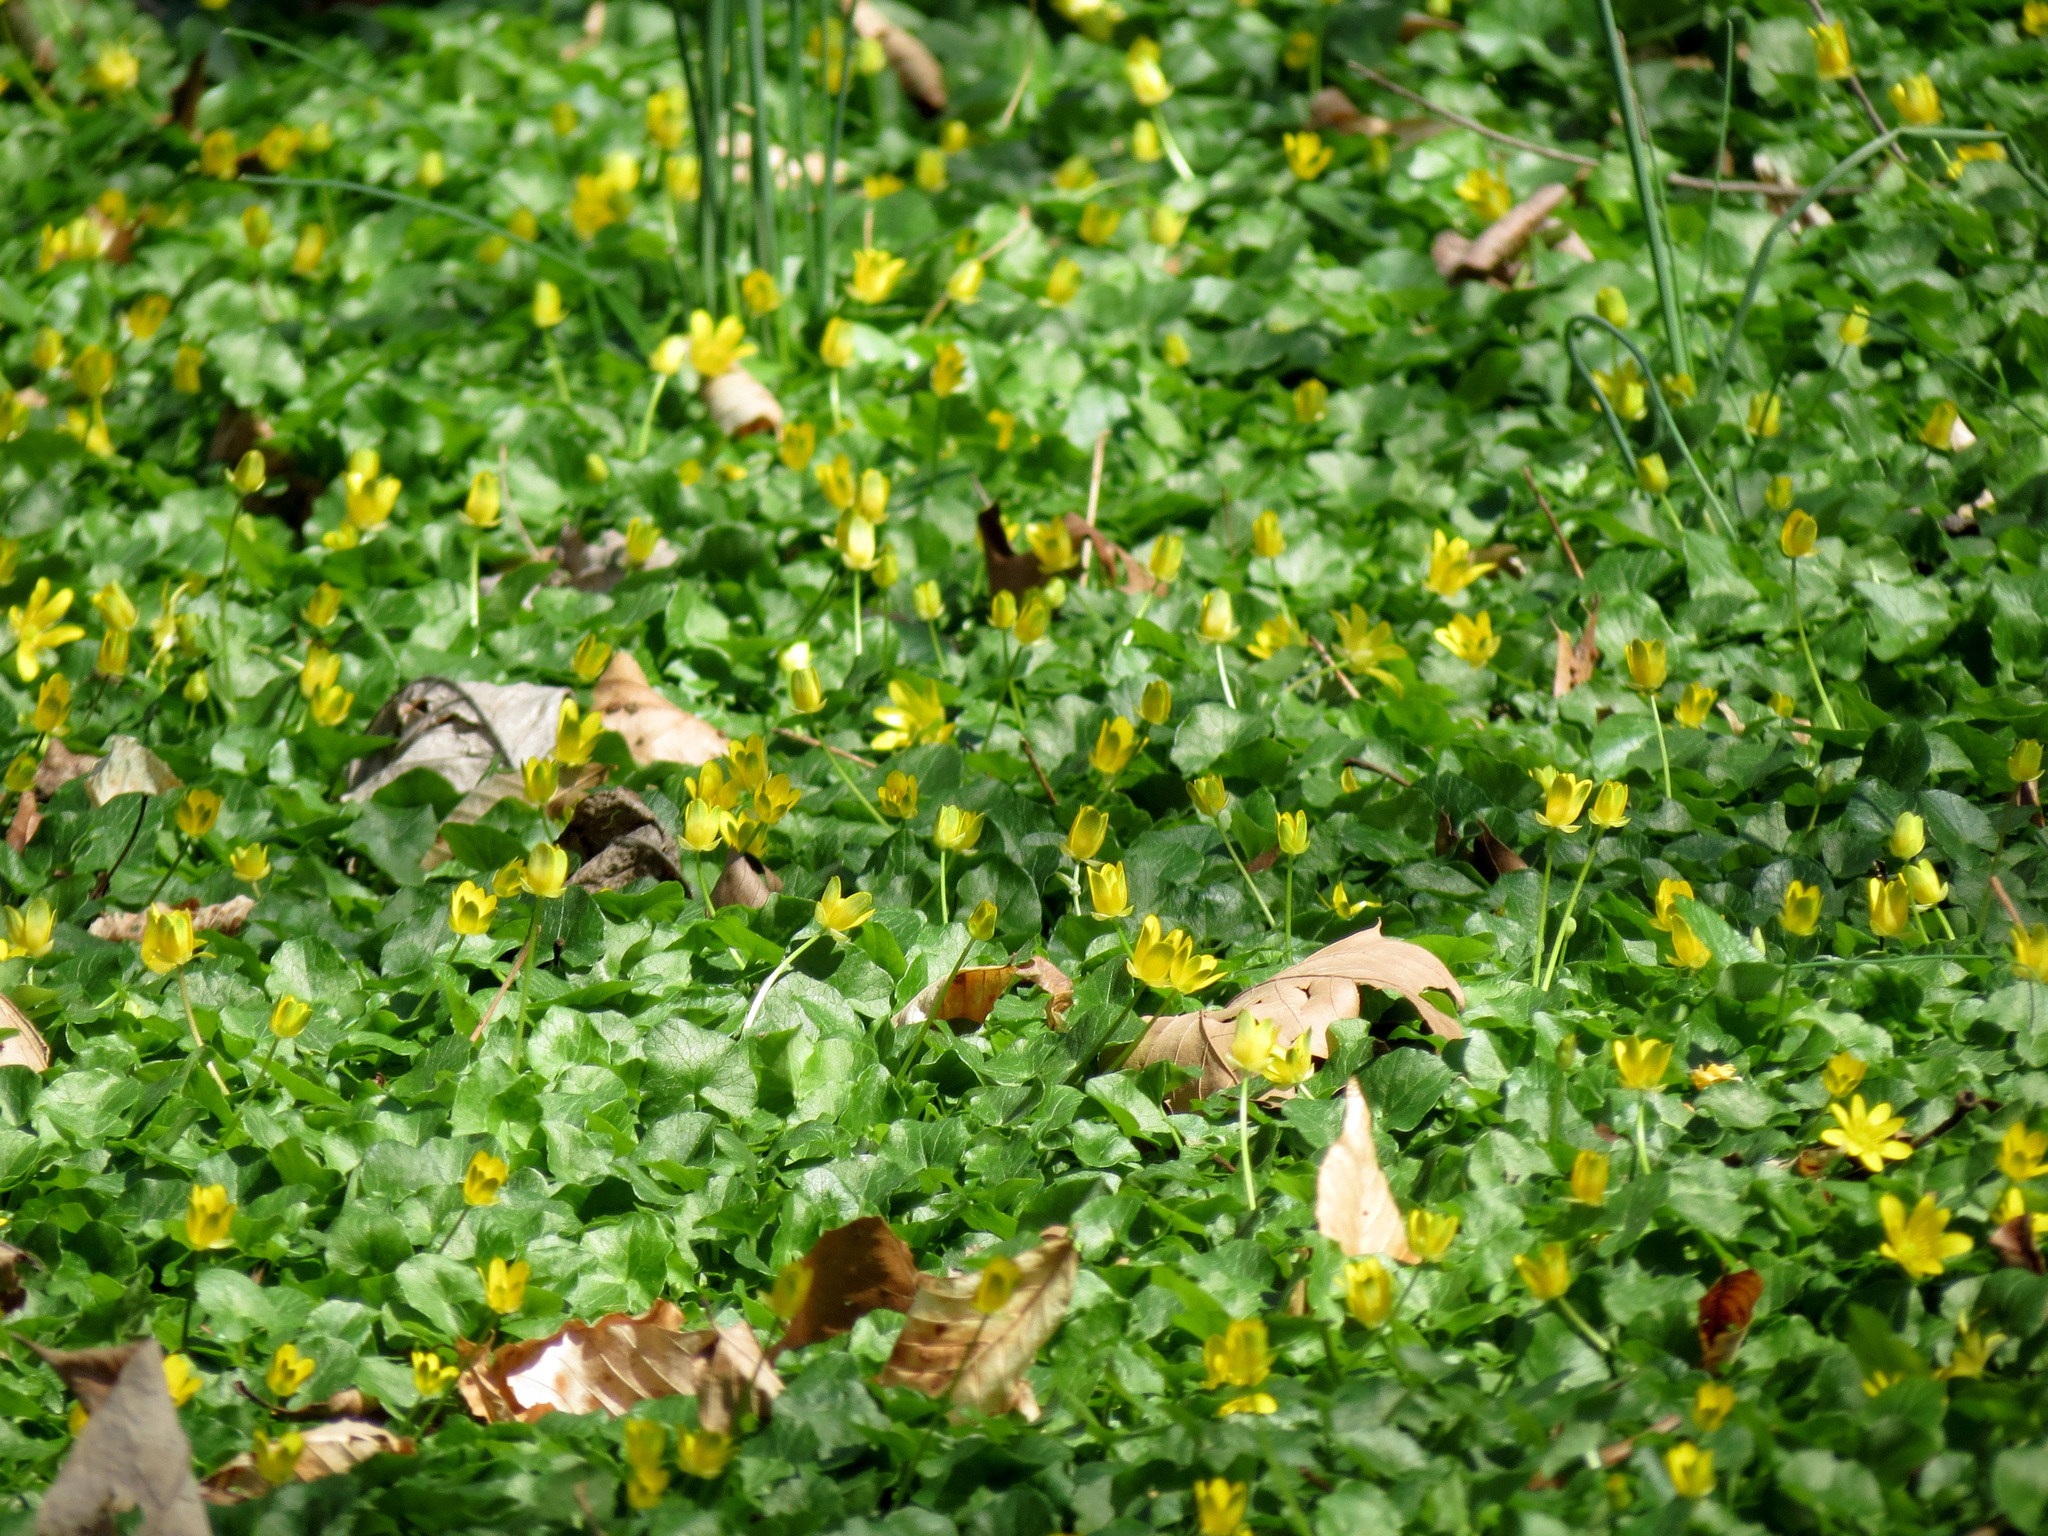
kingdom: Plantae
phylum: Tracheophyta
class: Magnoliopsida
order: Ranunculales
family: Ranunculaceae
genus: Ficaria
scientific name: Ficaria verna
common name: Lesser celandine
